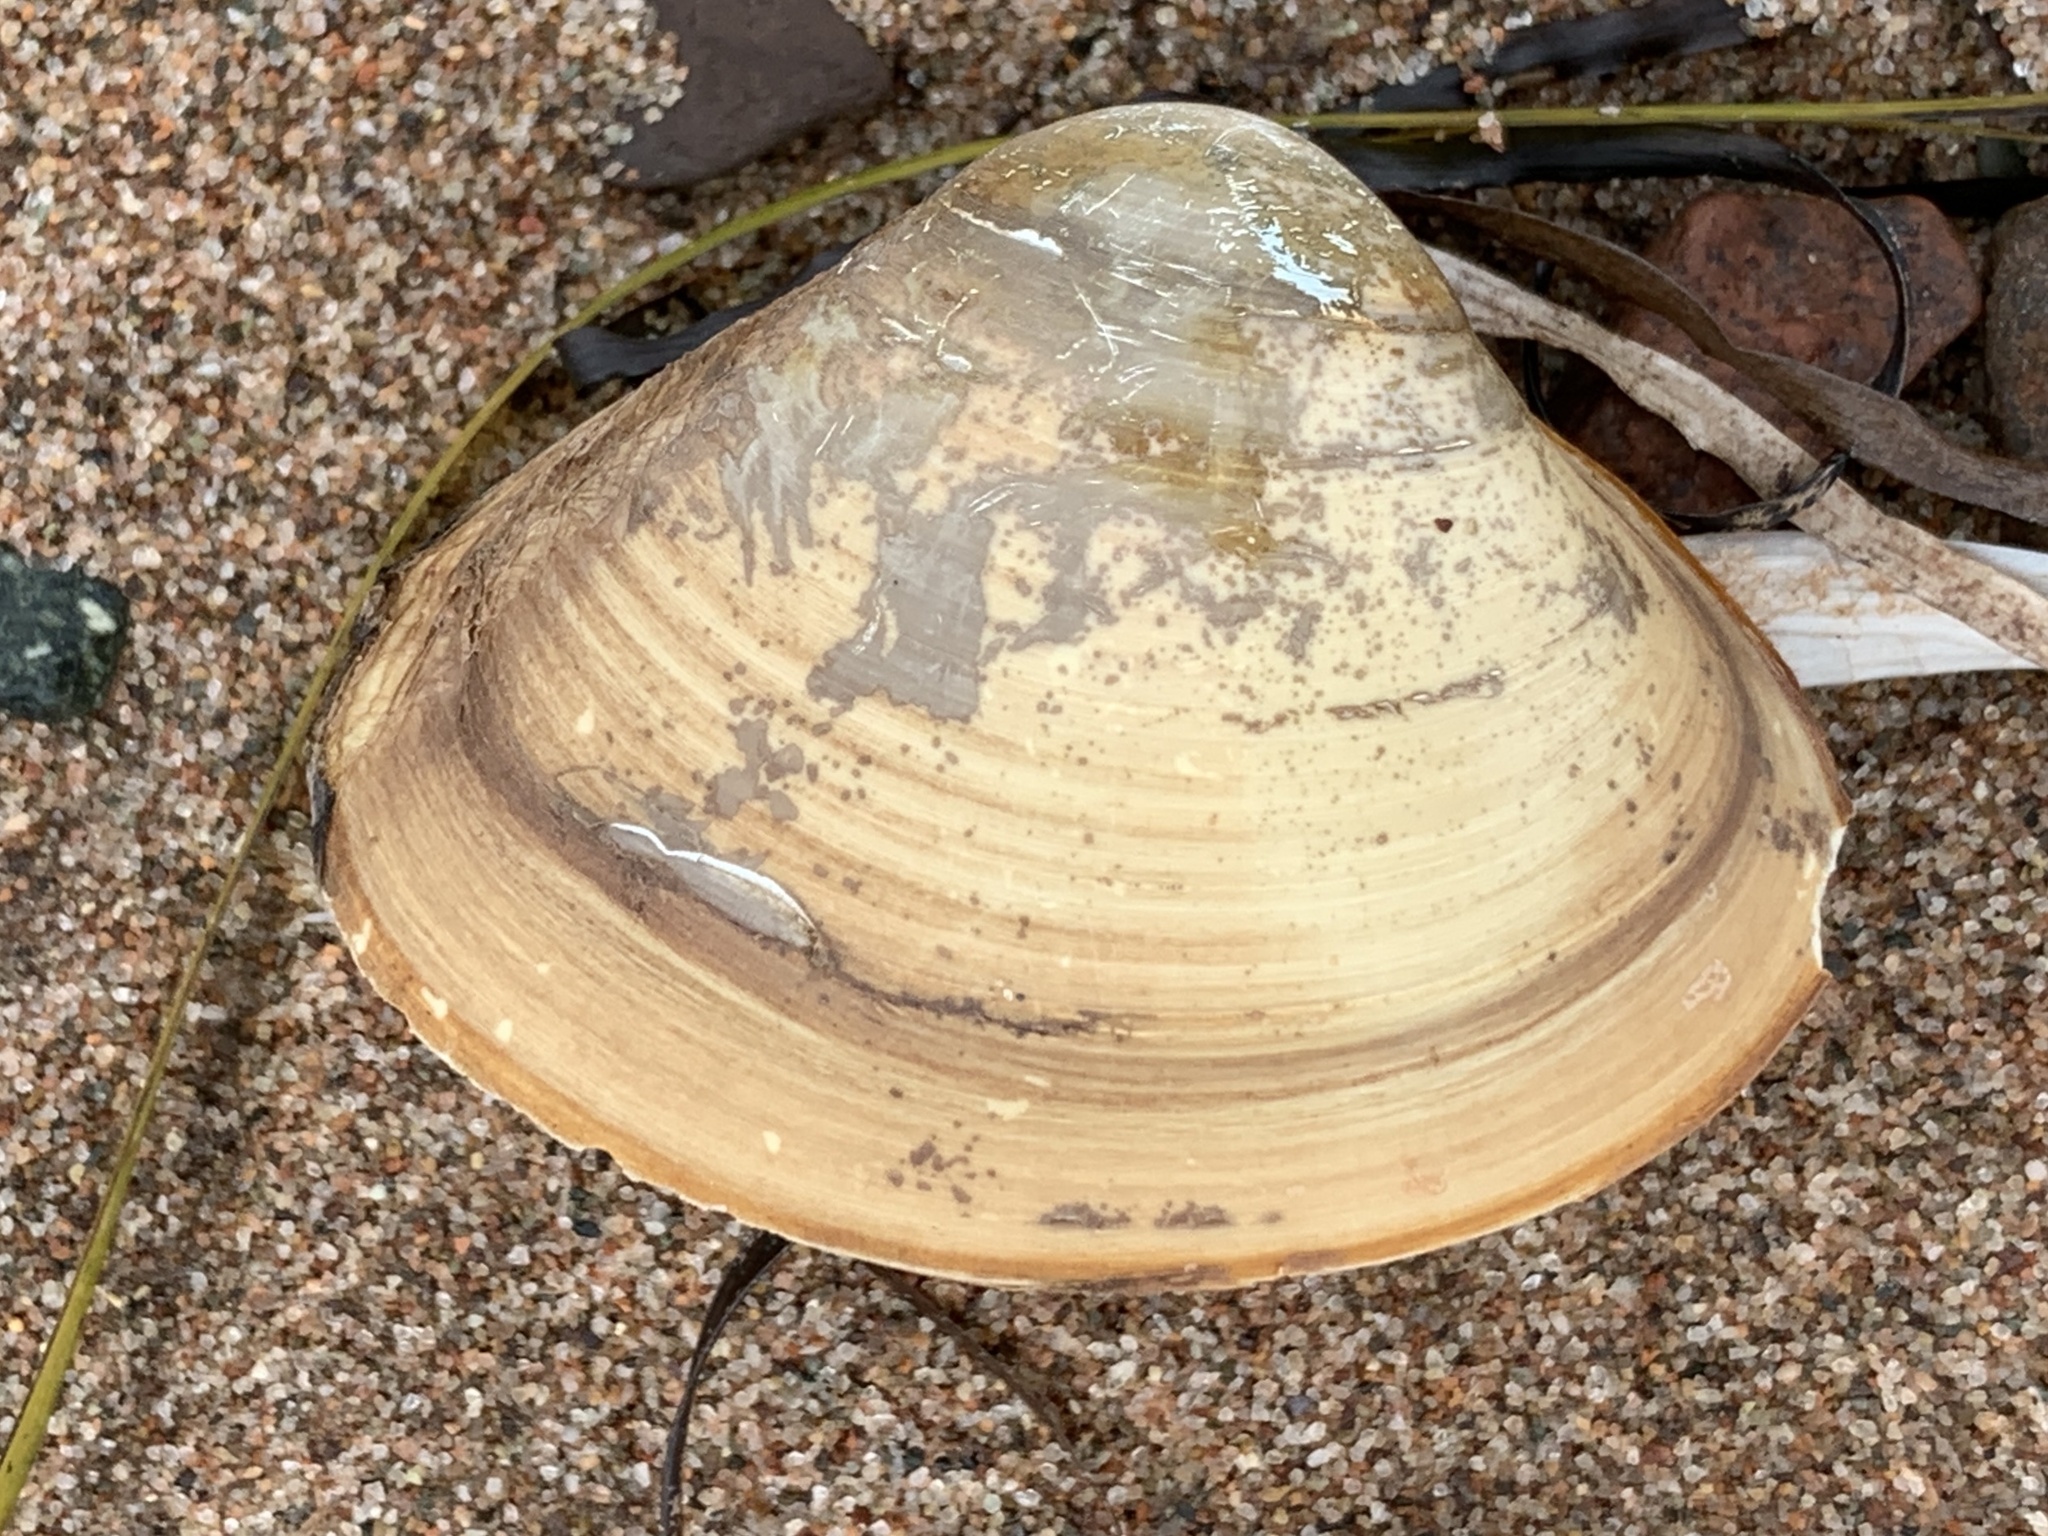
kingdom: Animalia
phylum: Mollusca
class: Bivalvia
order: Venerida
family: Mactridae
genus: Spisula
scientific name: Spisula solidissima
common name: Atlantic surf clam
